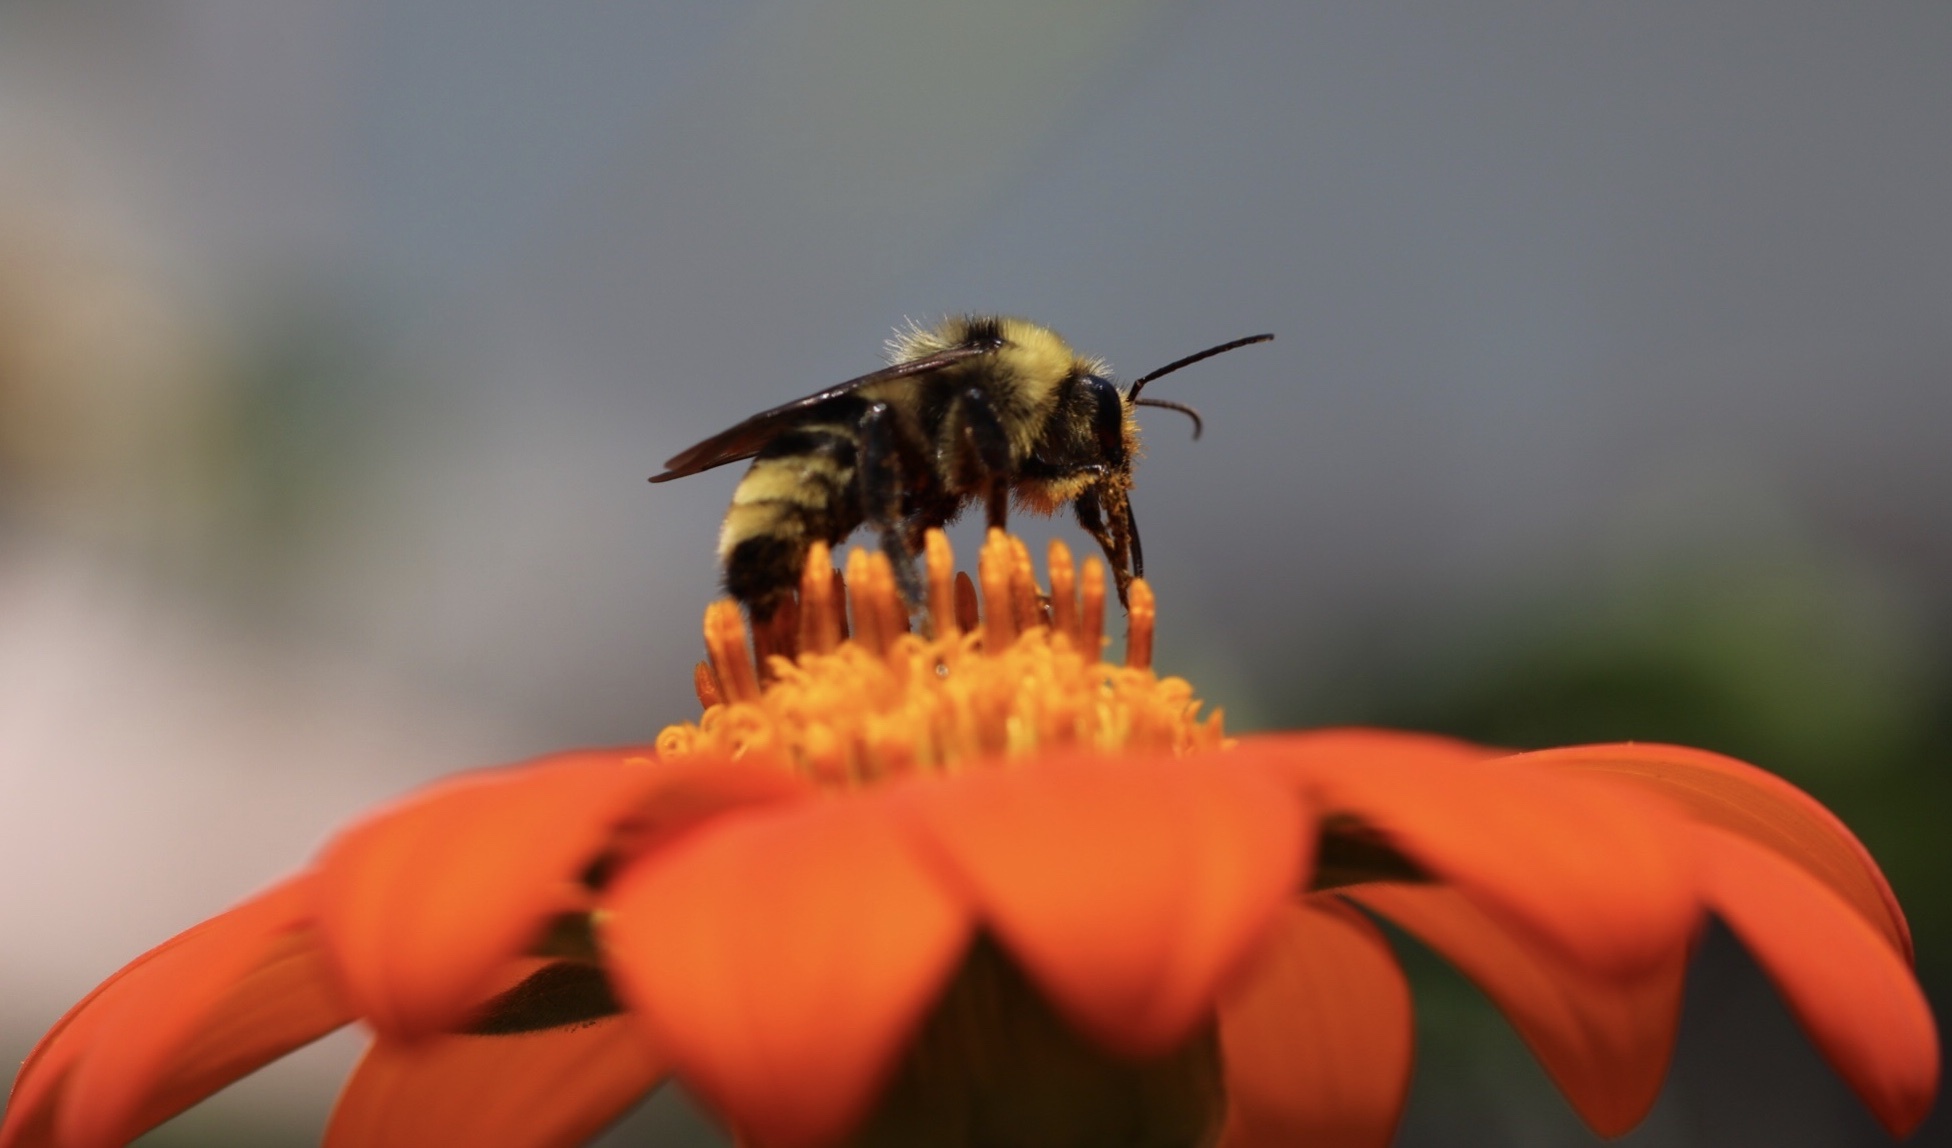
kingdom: Animalia
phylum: Arthropoda
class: Insecta
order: Hymenoptera
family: Apidae
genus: Bombus
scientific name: Bombus californicus
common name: California bumble bee
